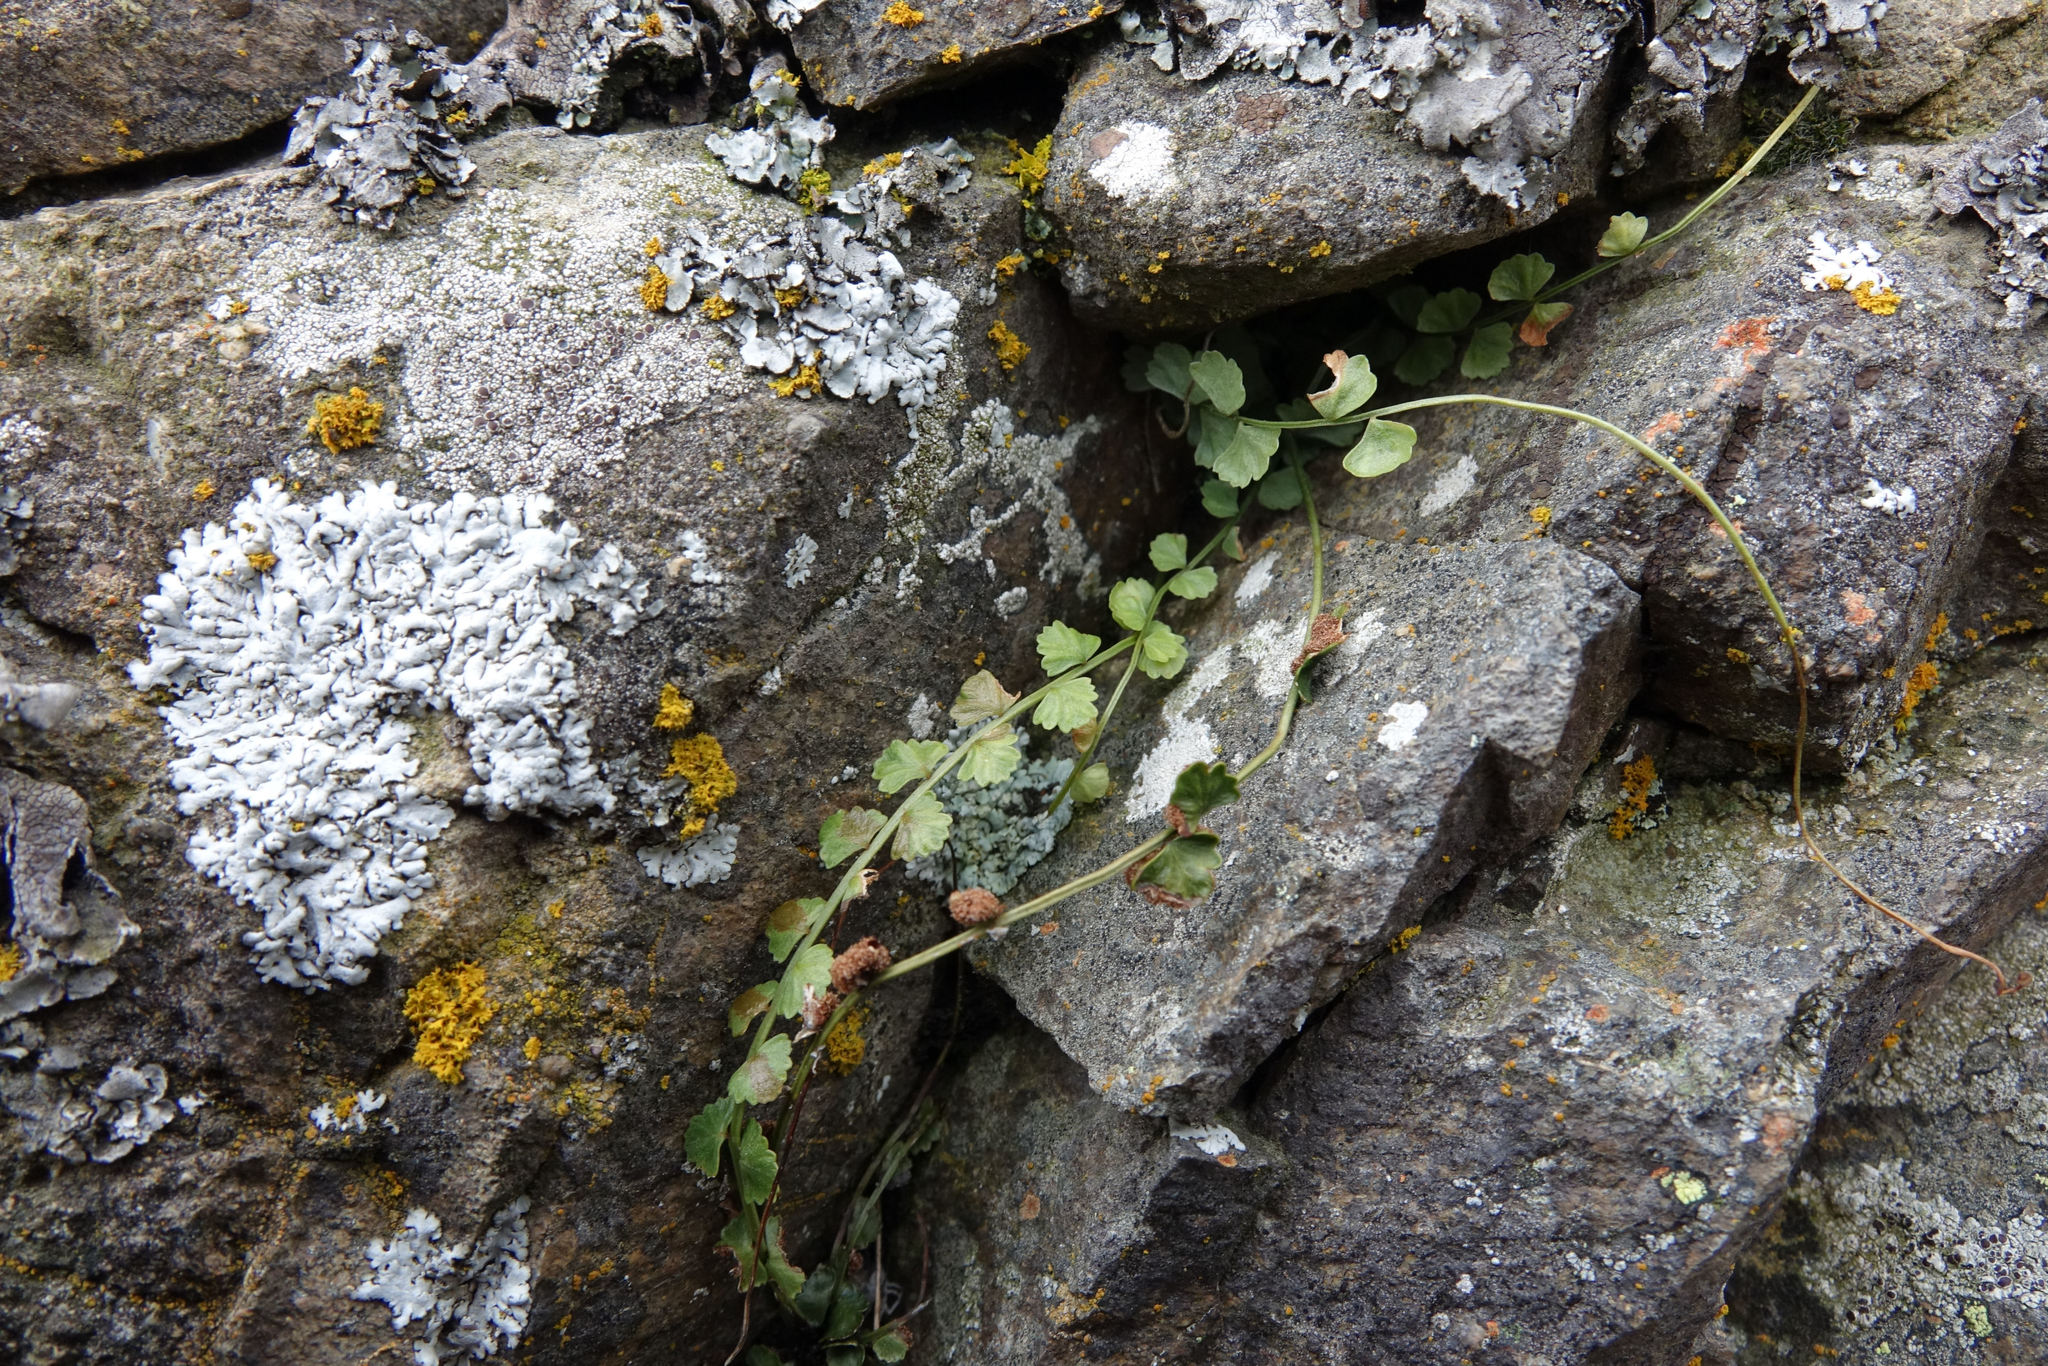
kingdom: Plantae
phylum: Tracheophyta
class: Polypodiopsida
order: Polypodiales
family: Aspleniaceae
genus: Asplenium
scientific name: Asplenium flabellifolium
